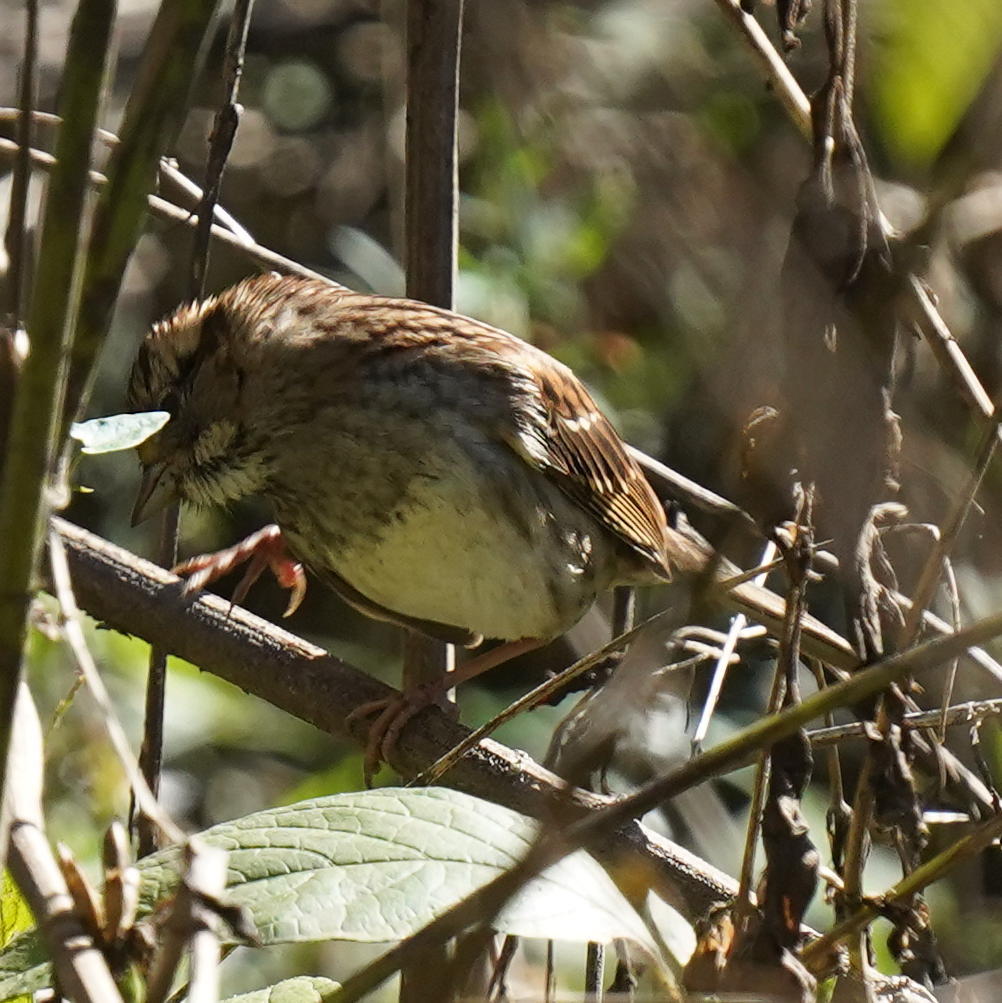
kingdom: Animalia
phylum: Chordata
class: Aves
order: Passeriformes
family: Passerellidae
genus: Zonotrichia
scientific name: Zonotrichia albicollis
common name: White-throated sparrow
